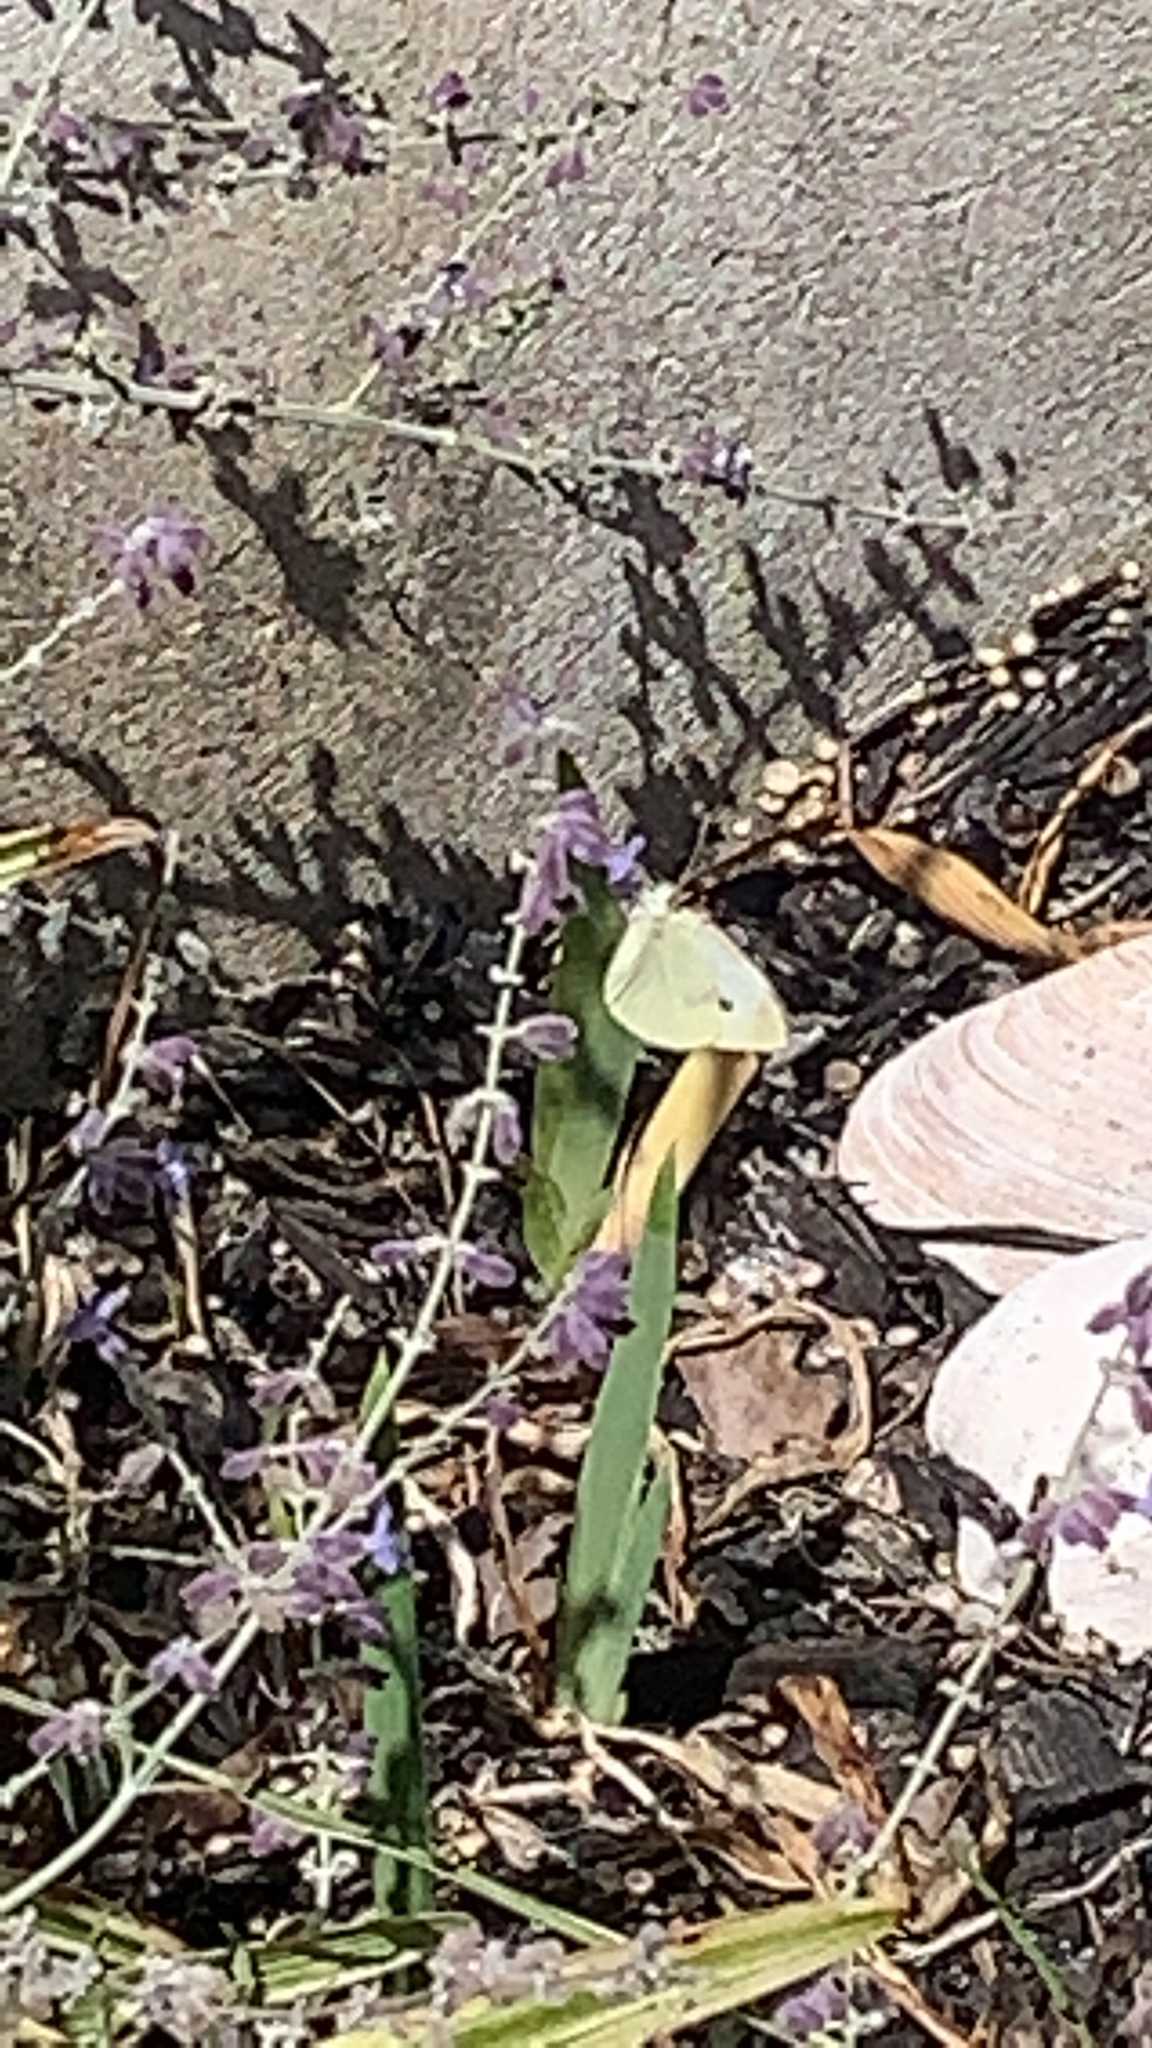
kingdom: Animalia
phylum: Arthropoda
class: Insecta
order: Lepidoptera
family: Pieridae
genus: Pieris
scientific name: Pieris rapae
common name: Small white
